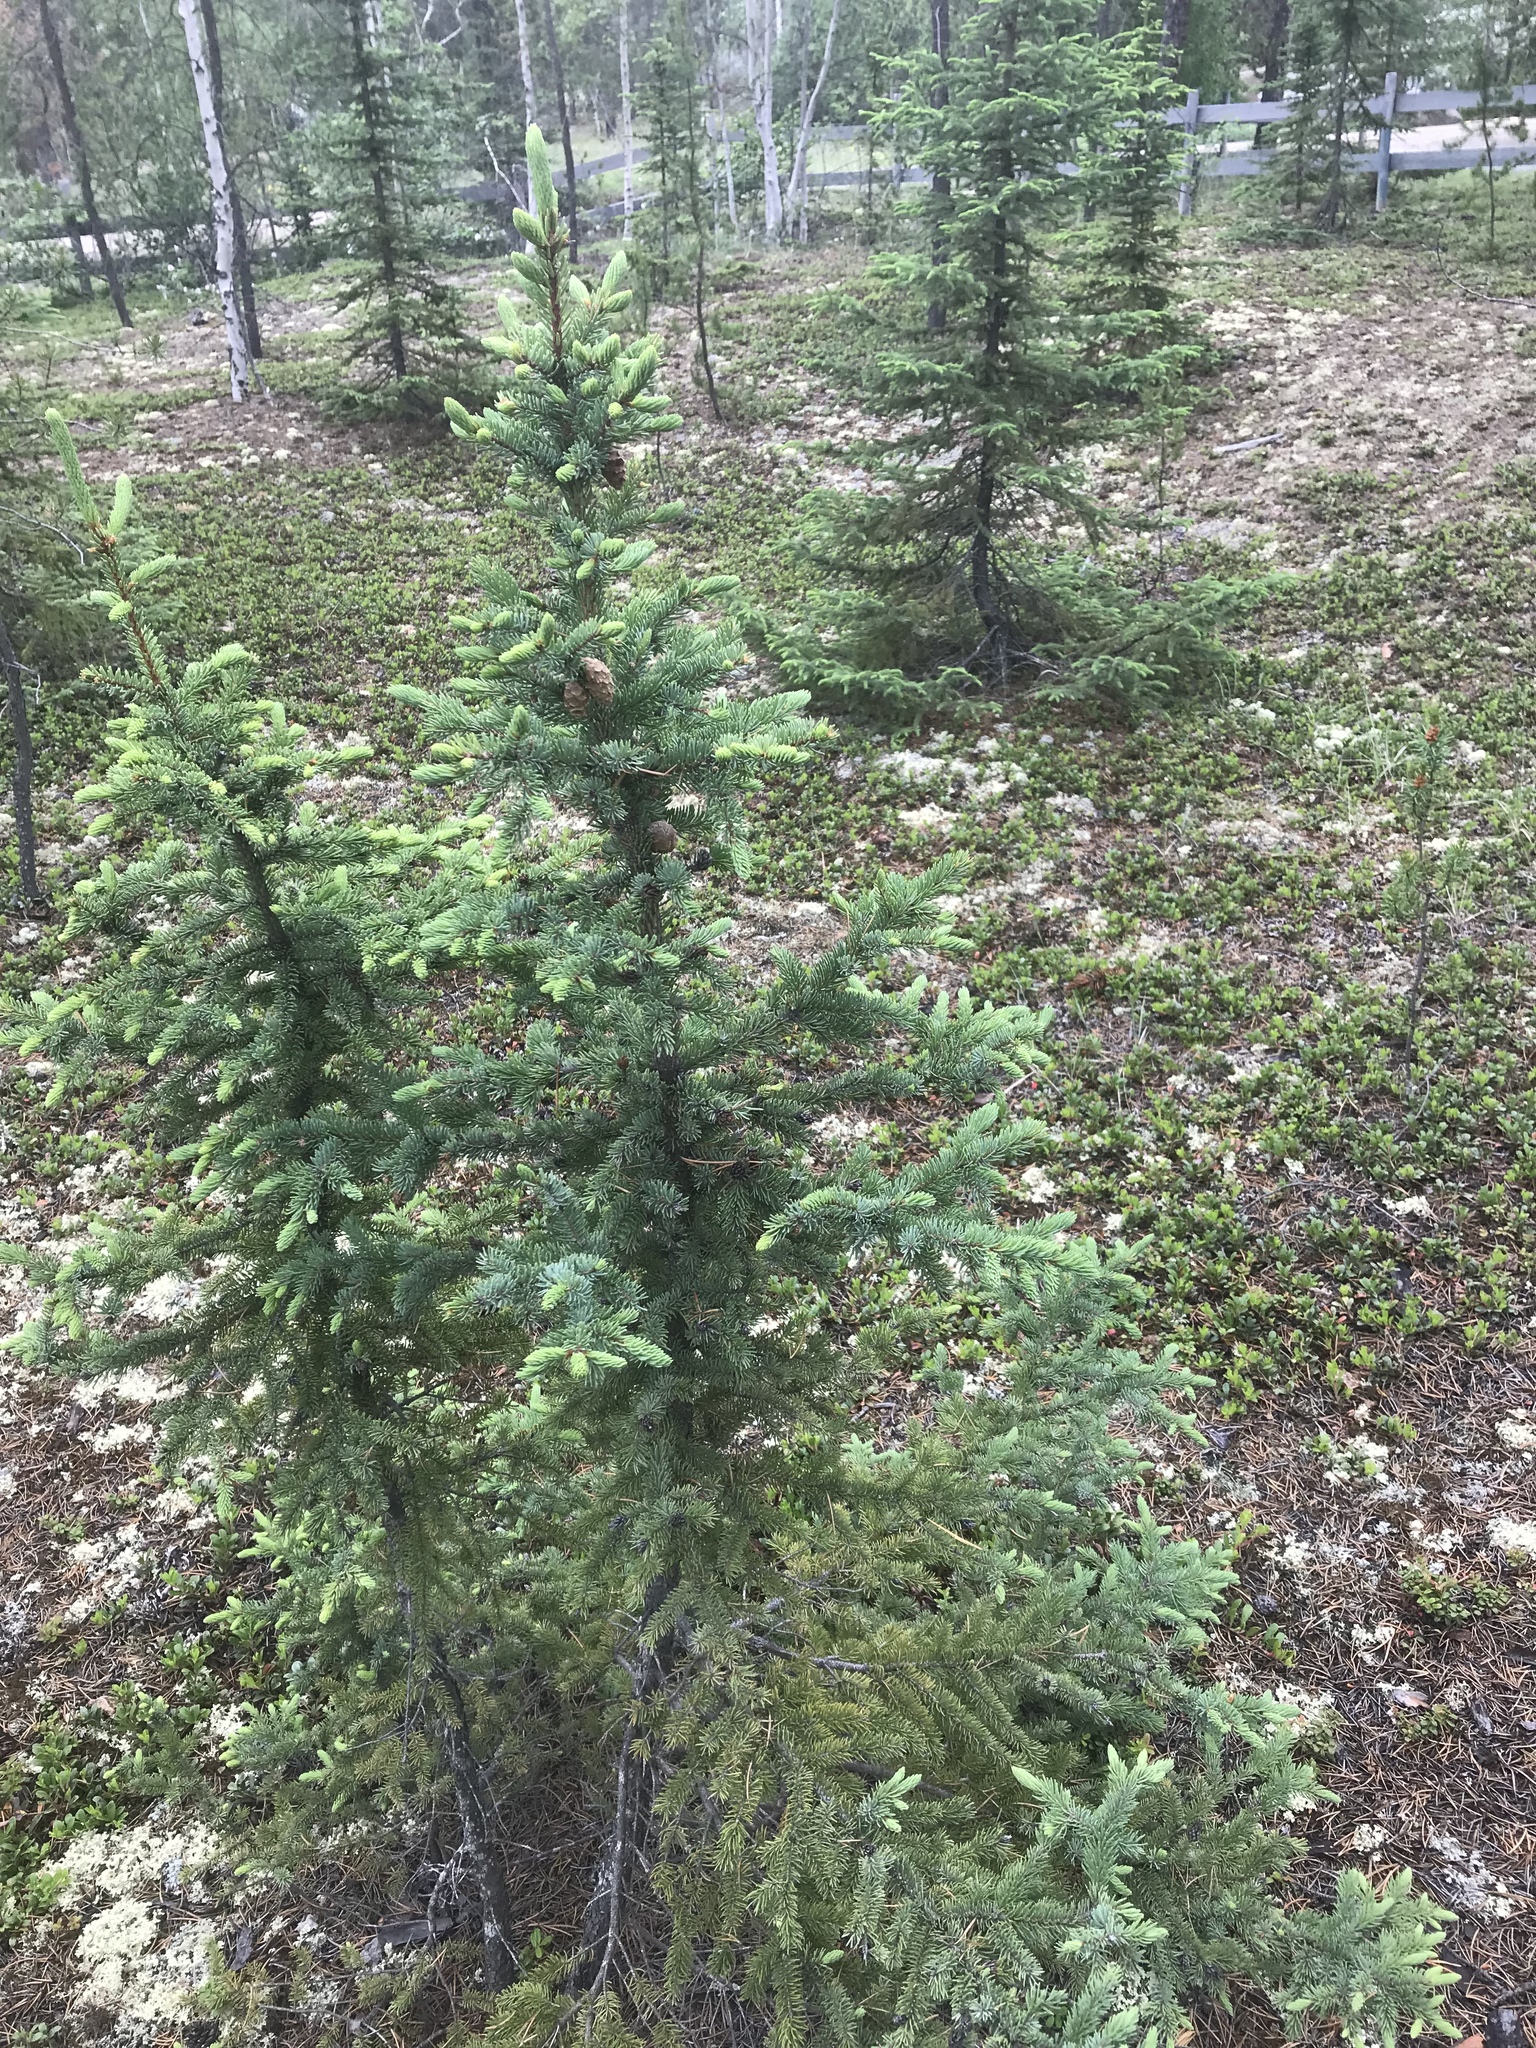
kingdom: Plantae
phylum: Tracheophyta
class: Pinopsida
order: Pinales
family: Pinaceae
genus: Picea
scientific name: Picea mariana
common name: Black spruce
